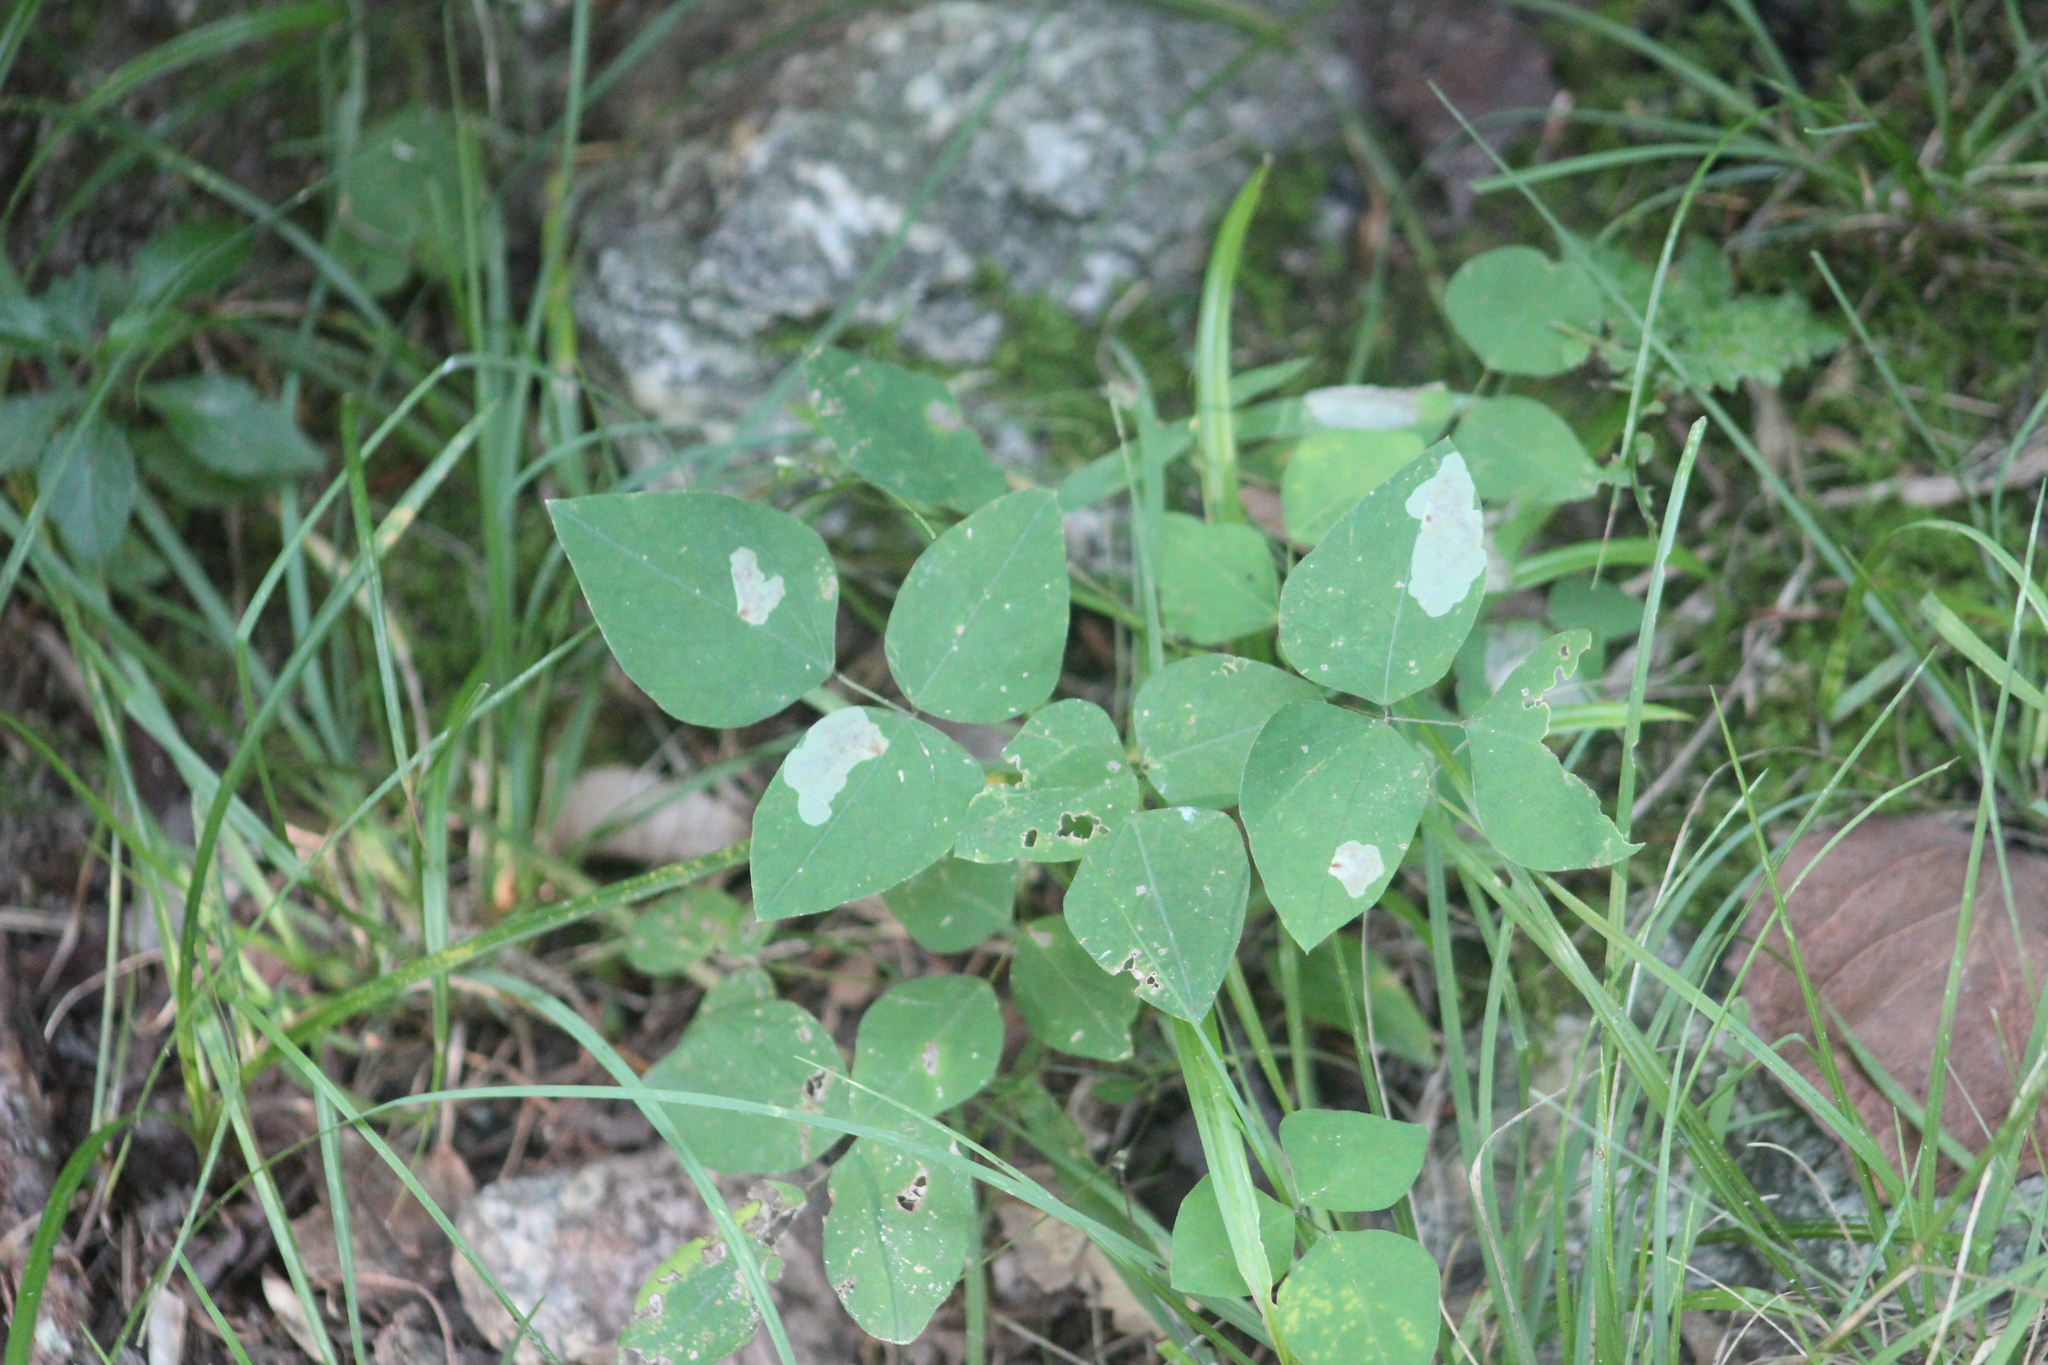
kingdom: Plantae
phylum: Tracheophyta
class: Magnoliopsida
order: Fabales
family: Fabaceae
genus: Amphicarpaea
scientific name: Amphicarpaea bracteata
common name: American hog peanut
